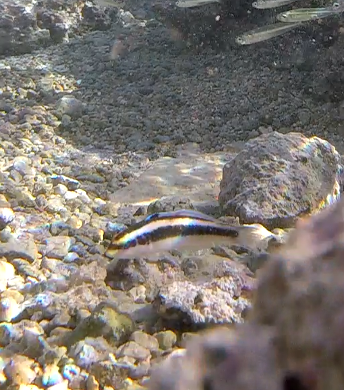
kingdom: Animalia
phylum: Chordata
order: Perciformes
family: Labridae
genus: Thalassoma
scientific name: Thalassoma bifasciatum
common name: Bluehead wrasse
